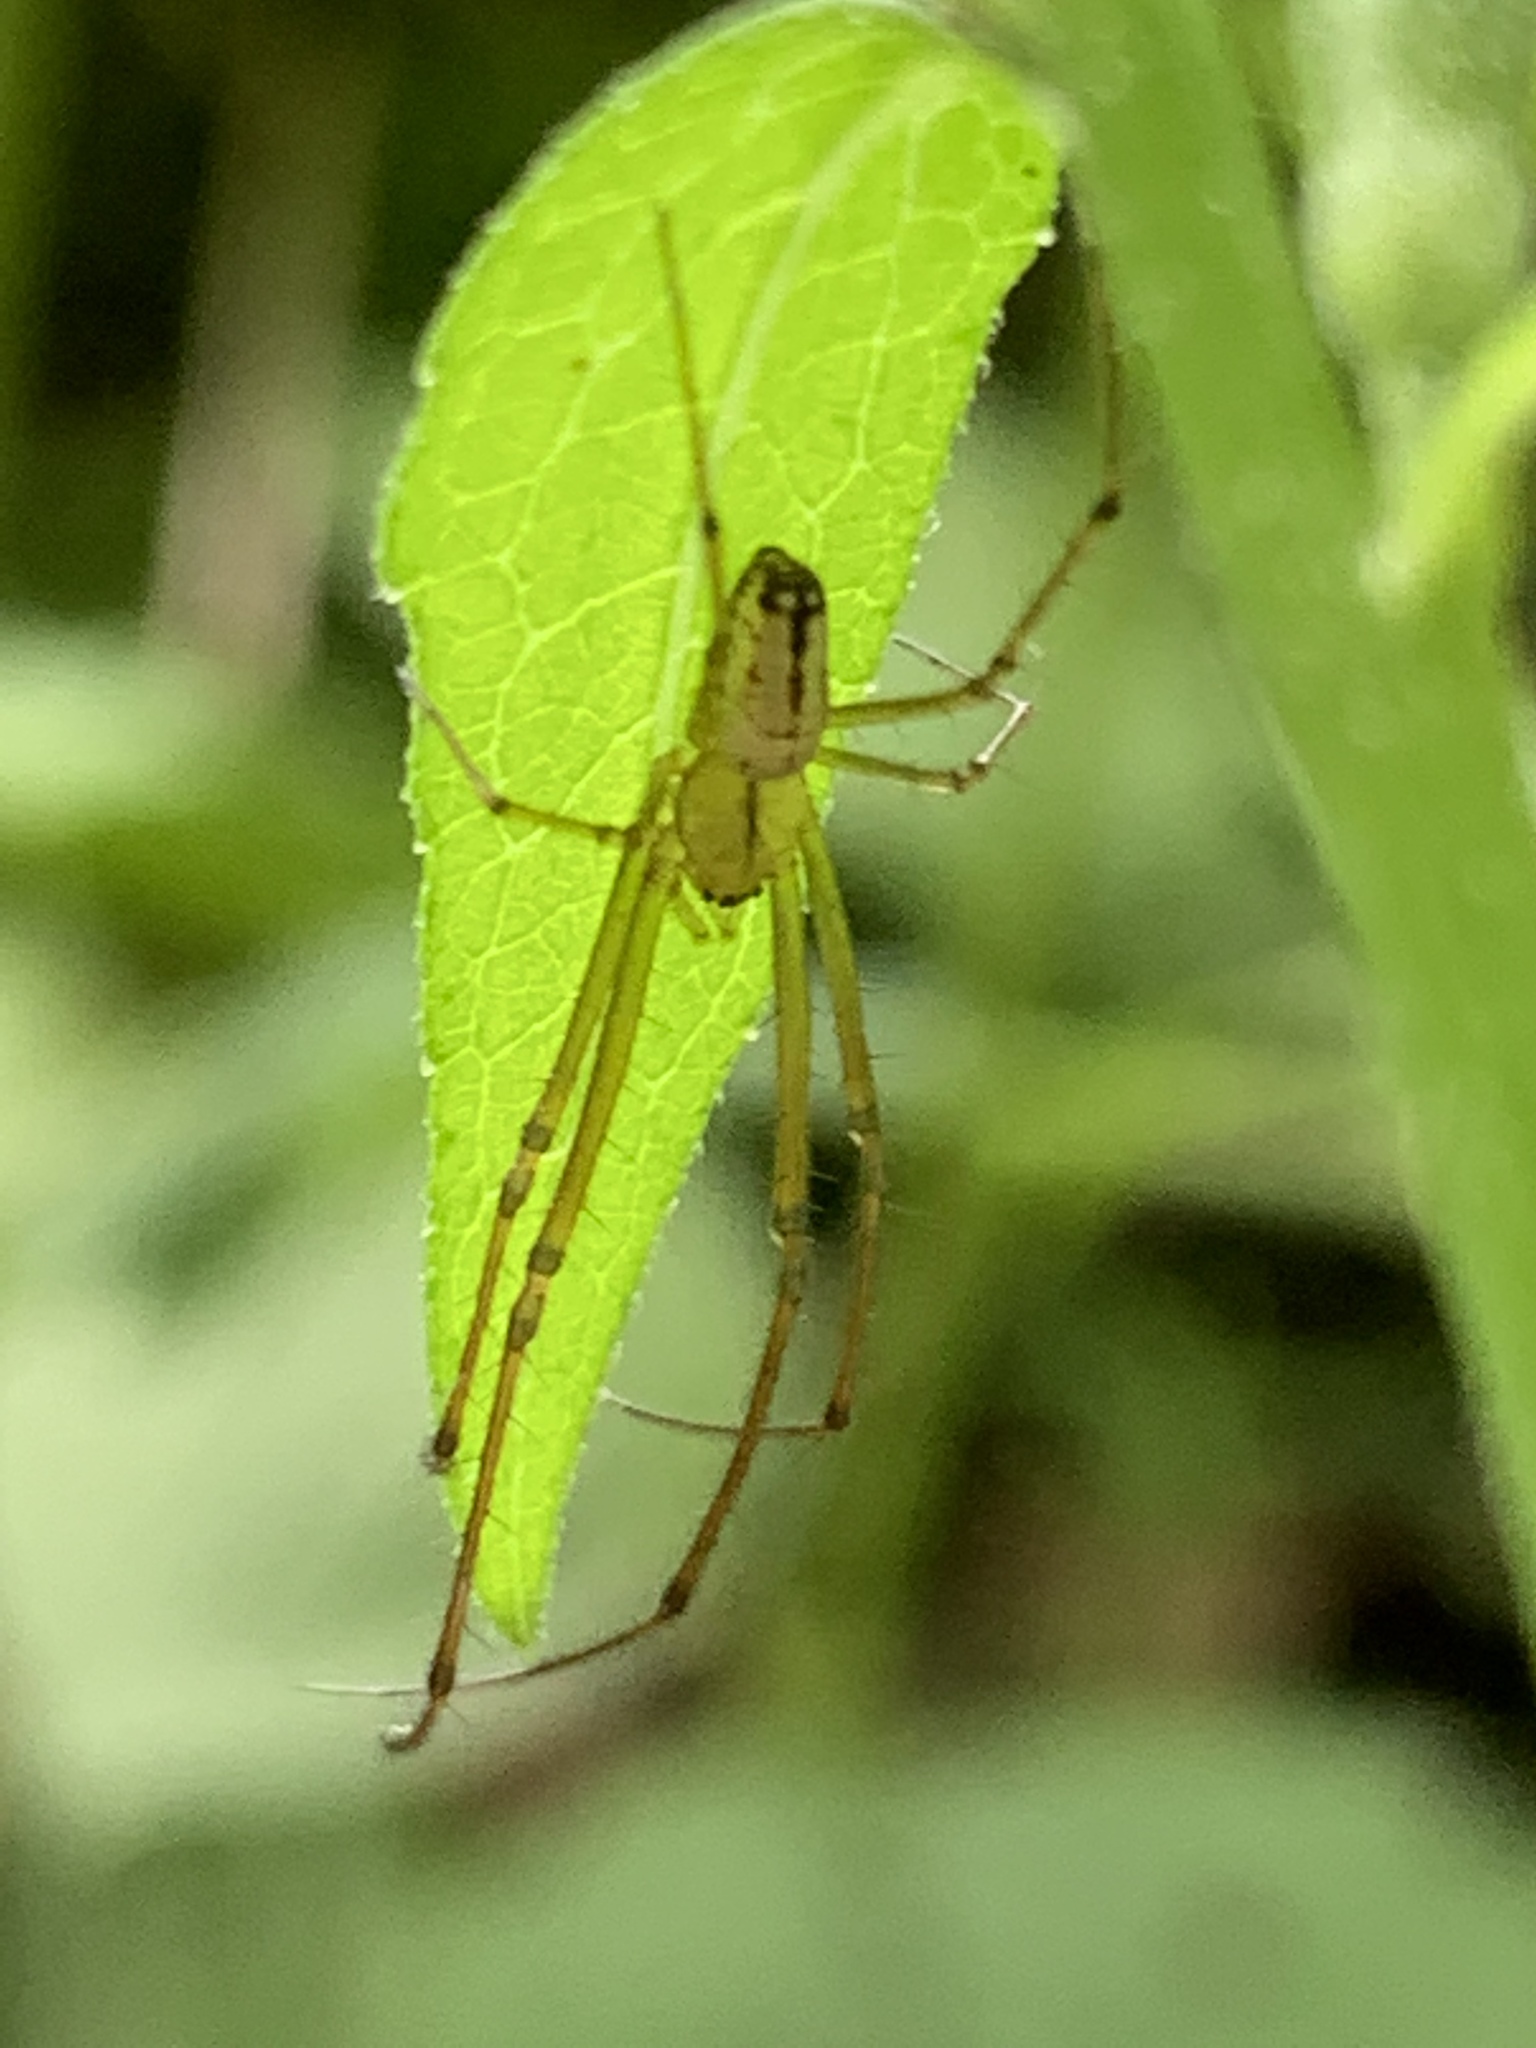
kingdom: Animalia
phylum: Arthropoda
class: Arachnida
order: Araneae
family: Tetragnathidae
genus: Leucauge
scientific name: Leucauge venusta
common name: Longjawed orb weavers
